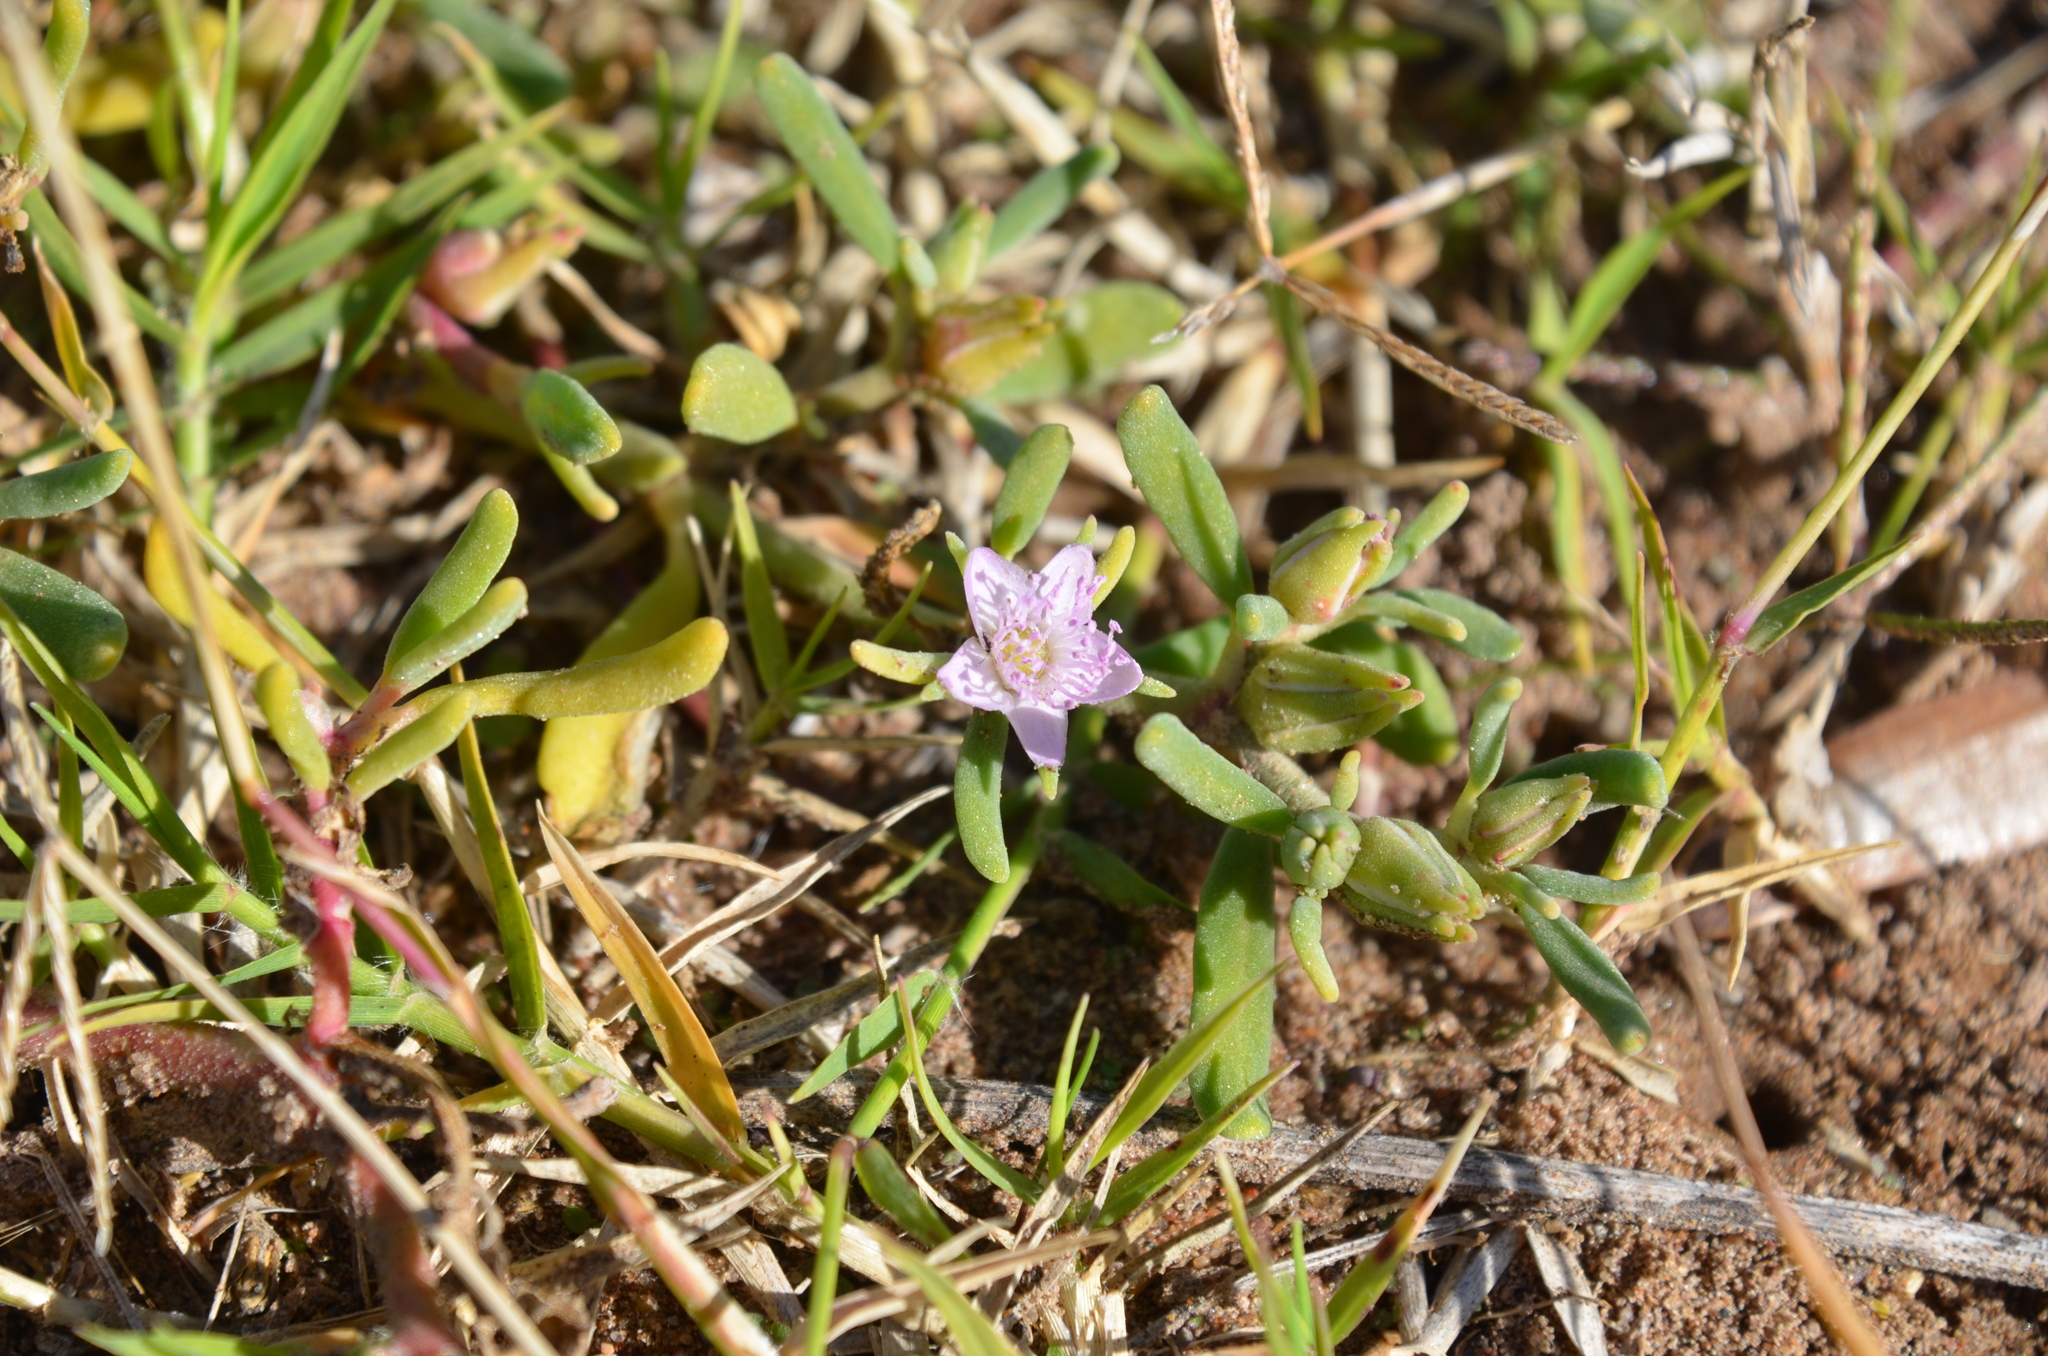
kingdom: Plantae
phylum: Tracheophyta
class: Magnoliopsida
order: Caryophyllales
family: Aizoaceae
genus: Sesuvium
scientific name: Sesuvium portulacastrum
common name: Sea-purslane
